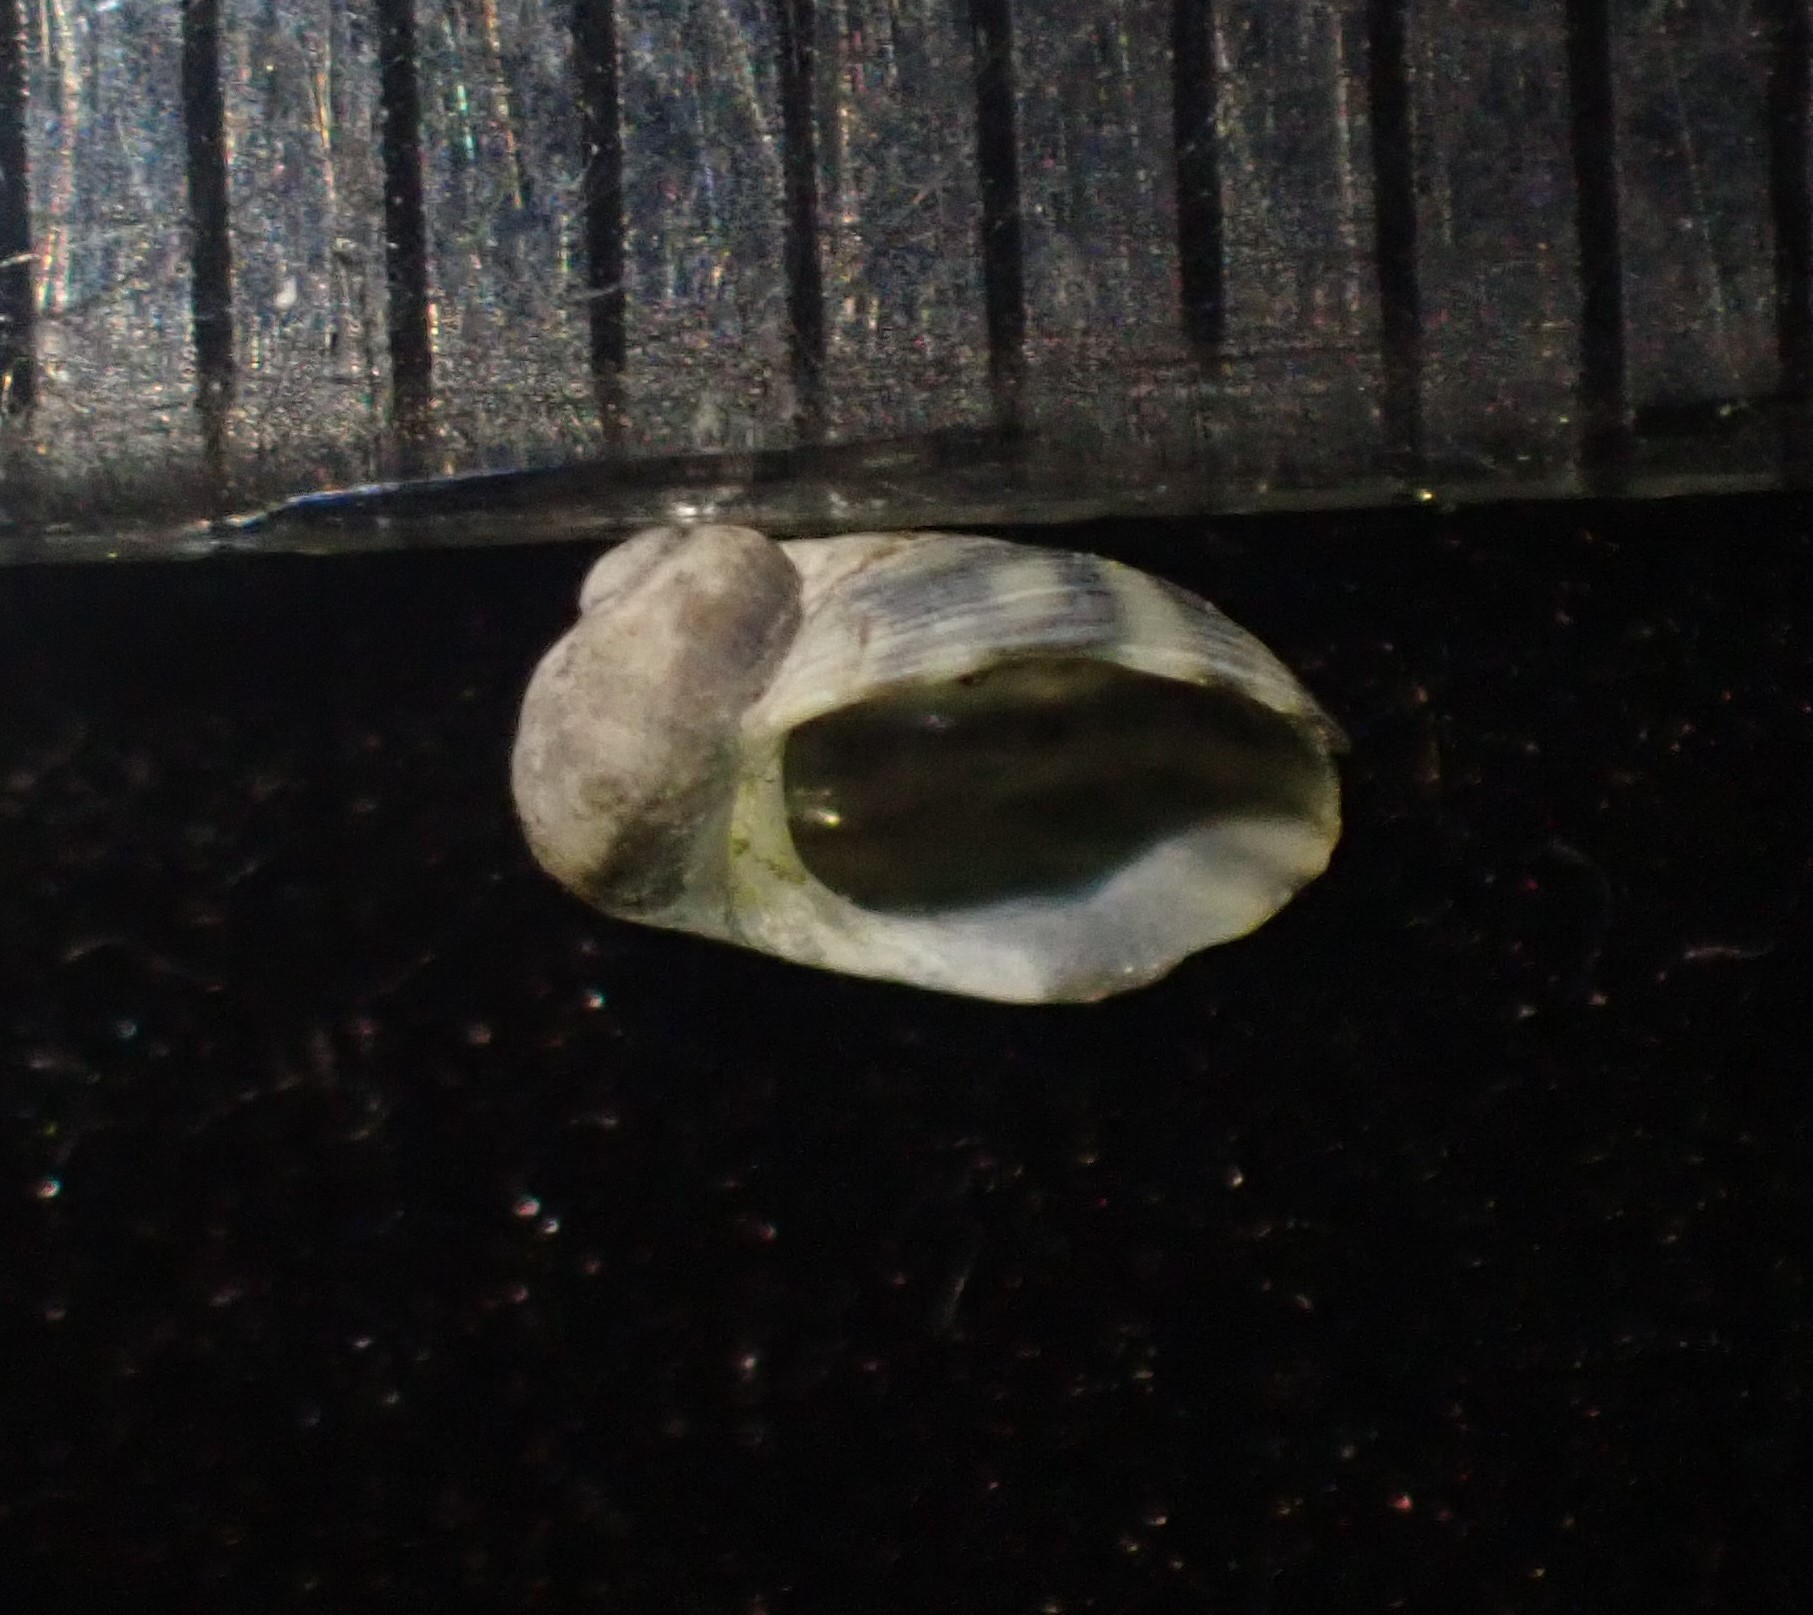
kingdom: Animalia
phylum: Mollusca
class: Gastropoda
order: Trochida
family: Trochidae
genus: Fossarina
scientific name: Fossarina rimata
